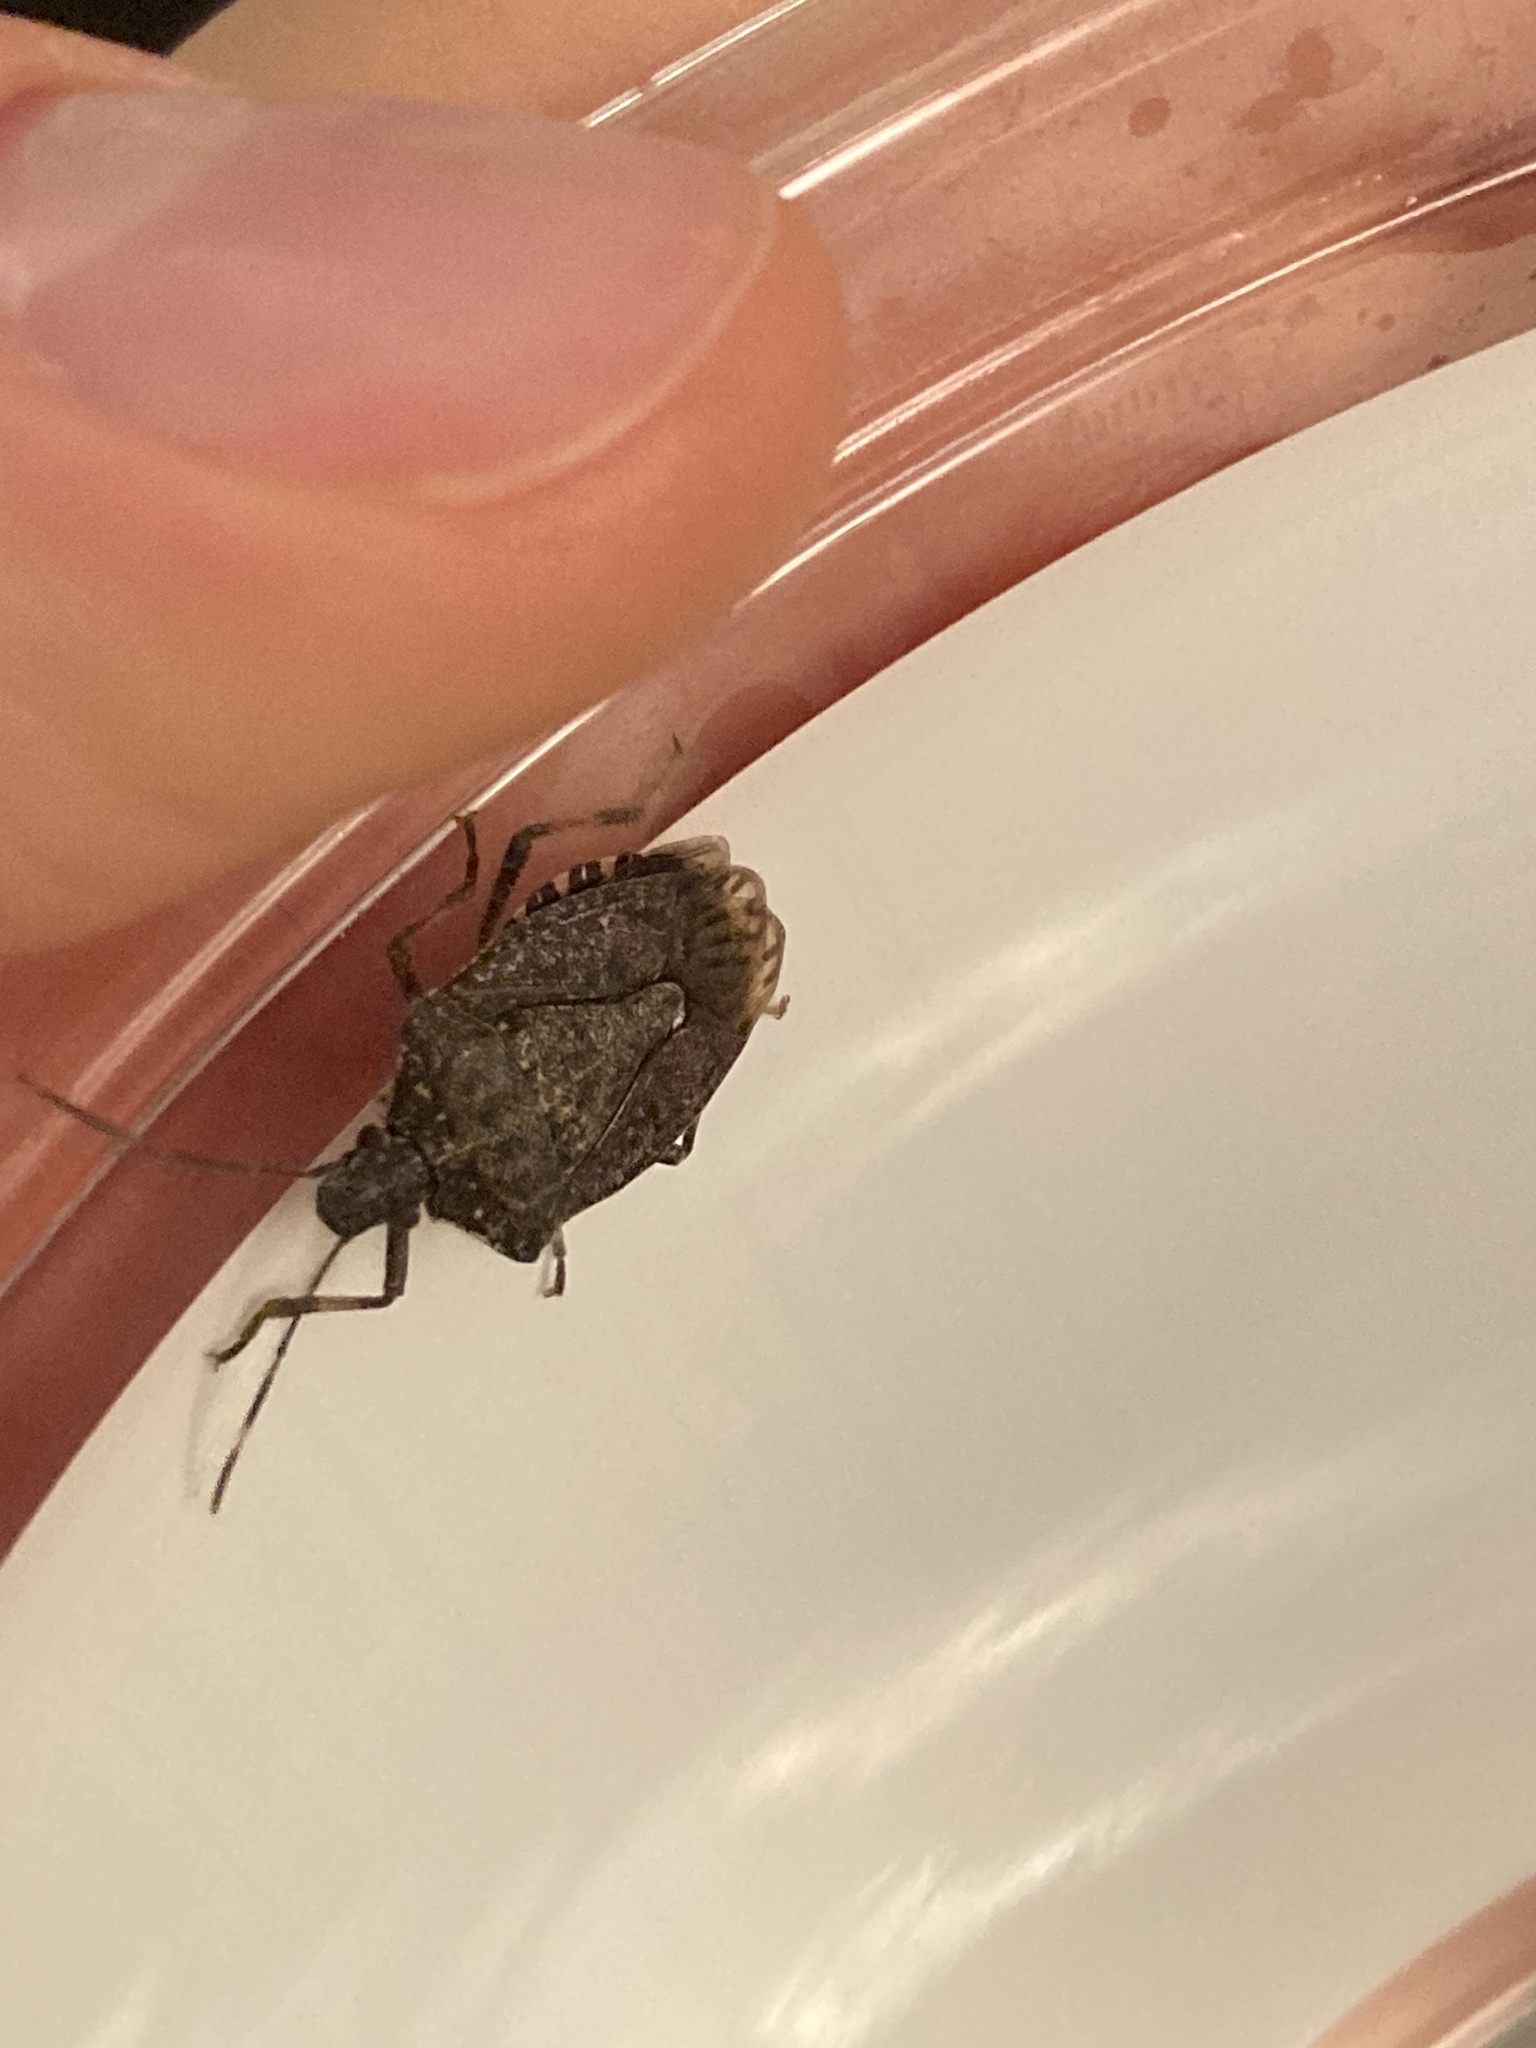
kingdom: Animalia
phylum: Arthropoda
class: Insecta
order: Hemiptera
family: Pentatomidae
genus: Halyomorpha
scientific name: Halyomorpha halys
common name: Brown marmorated stink bug
